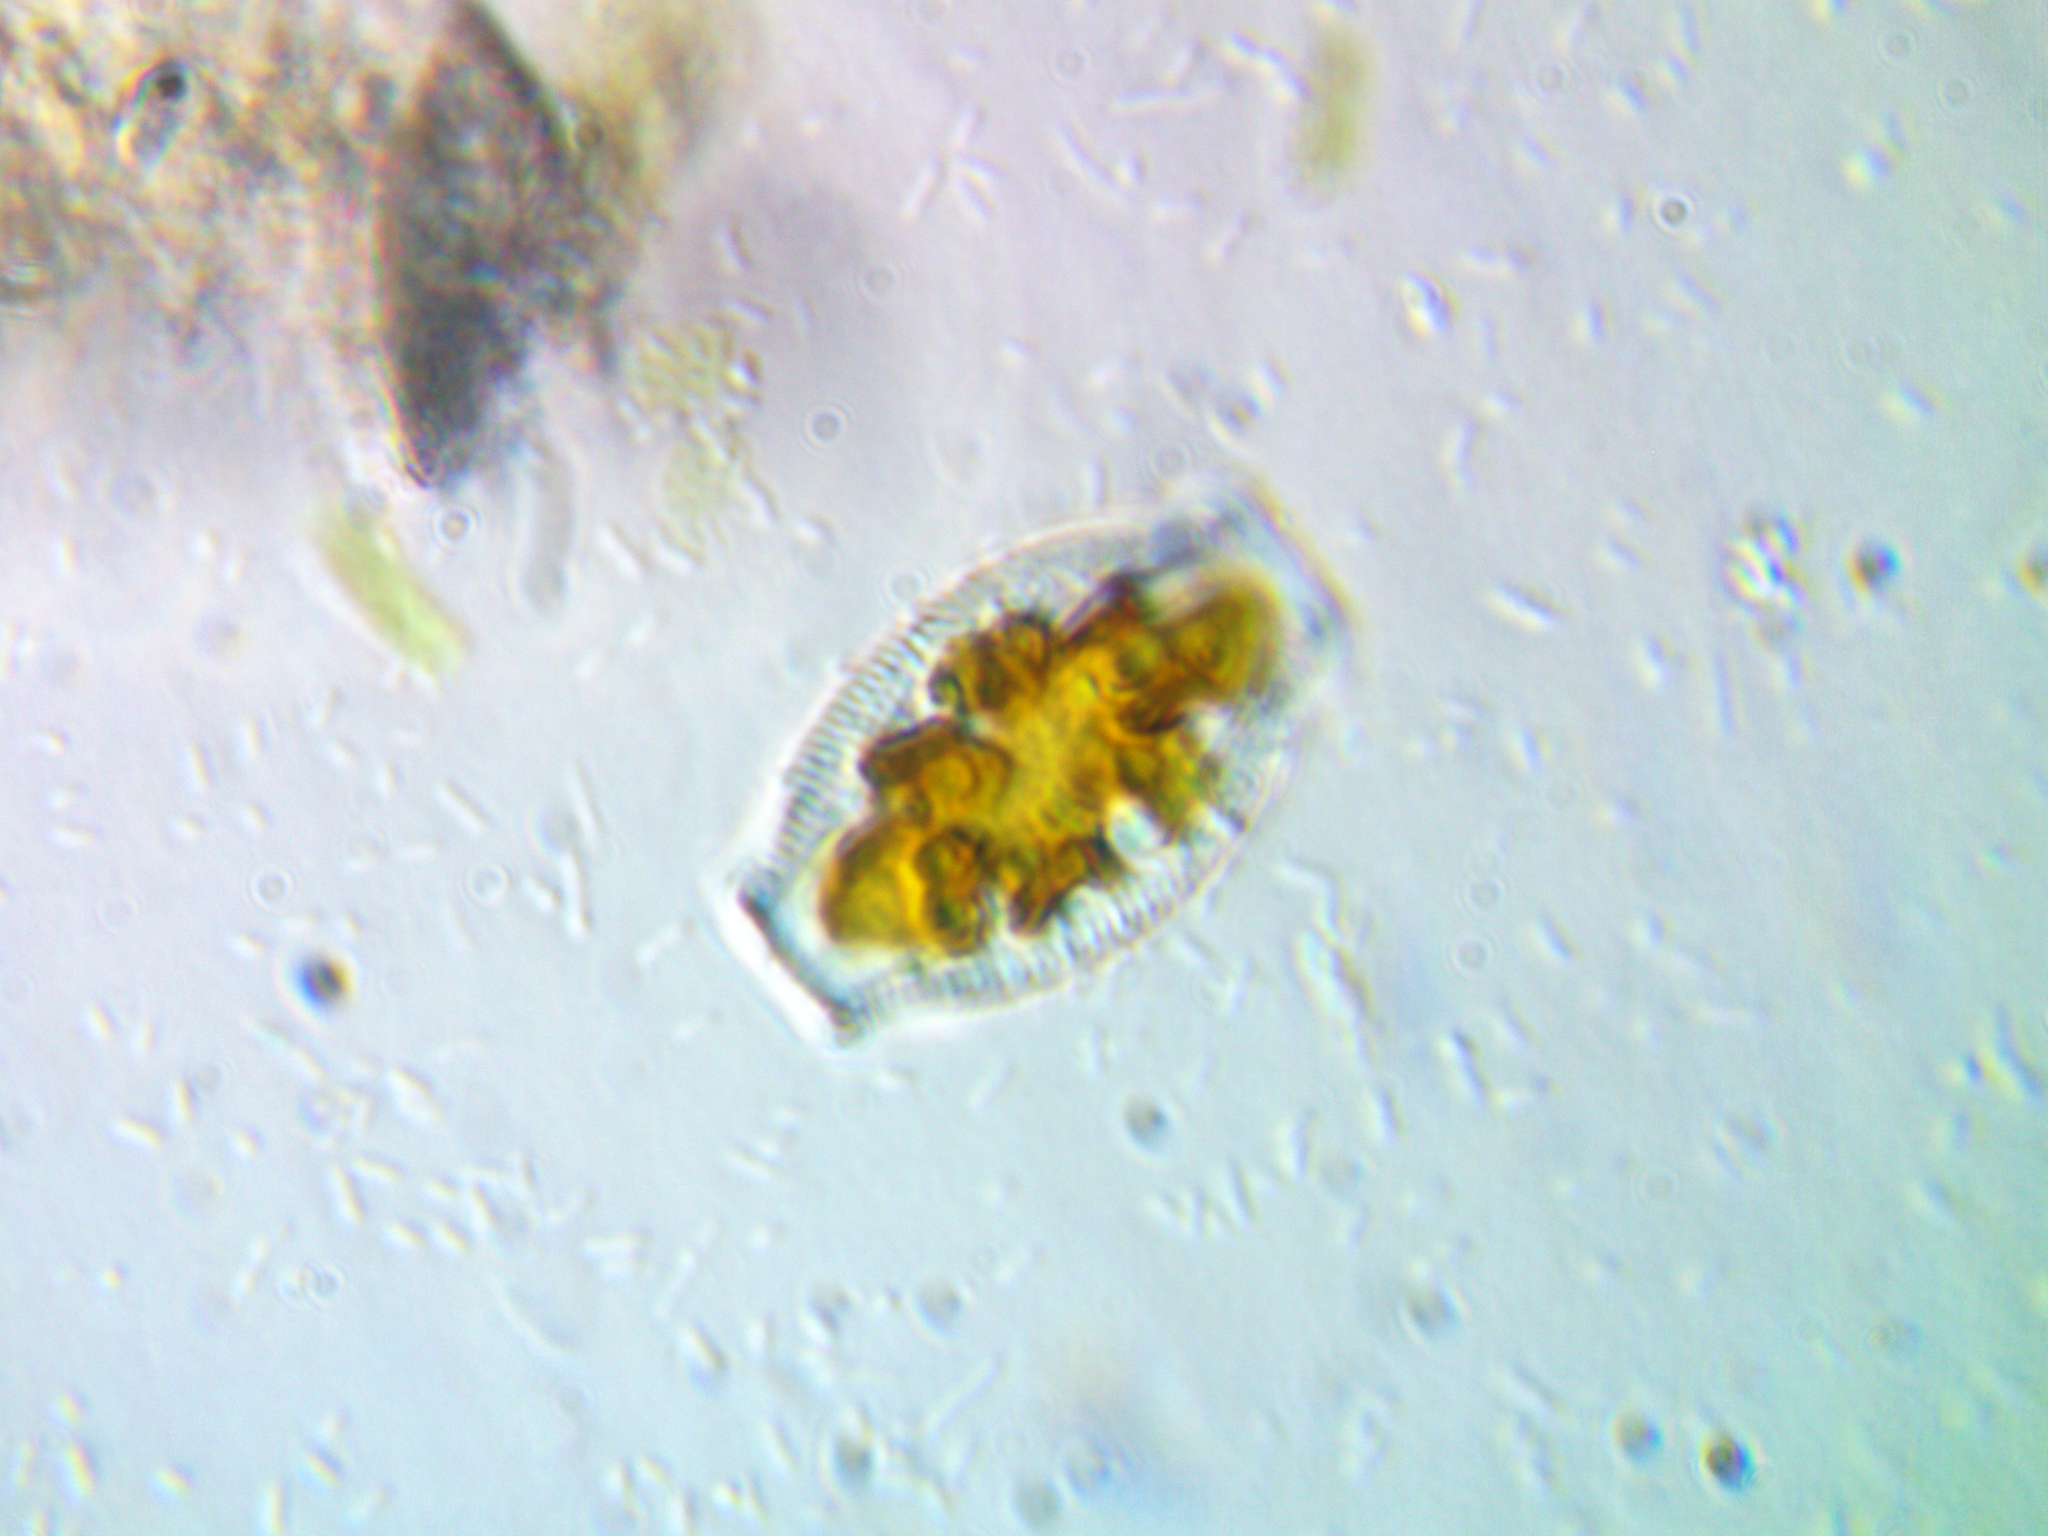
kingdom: Chromista
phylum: Ochrophyta
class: Bacillariophyceae
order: Rhopalodiales
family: Rhopalodiaceae
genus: Epithemia
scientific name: Epithemia sorex
